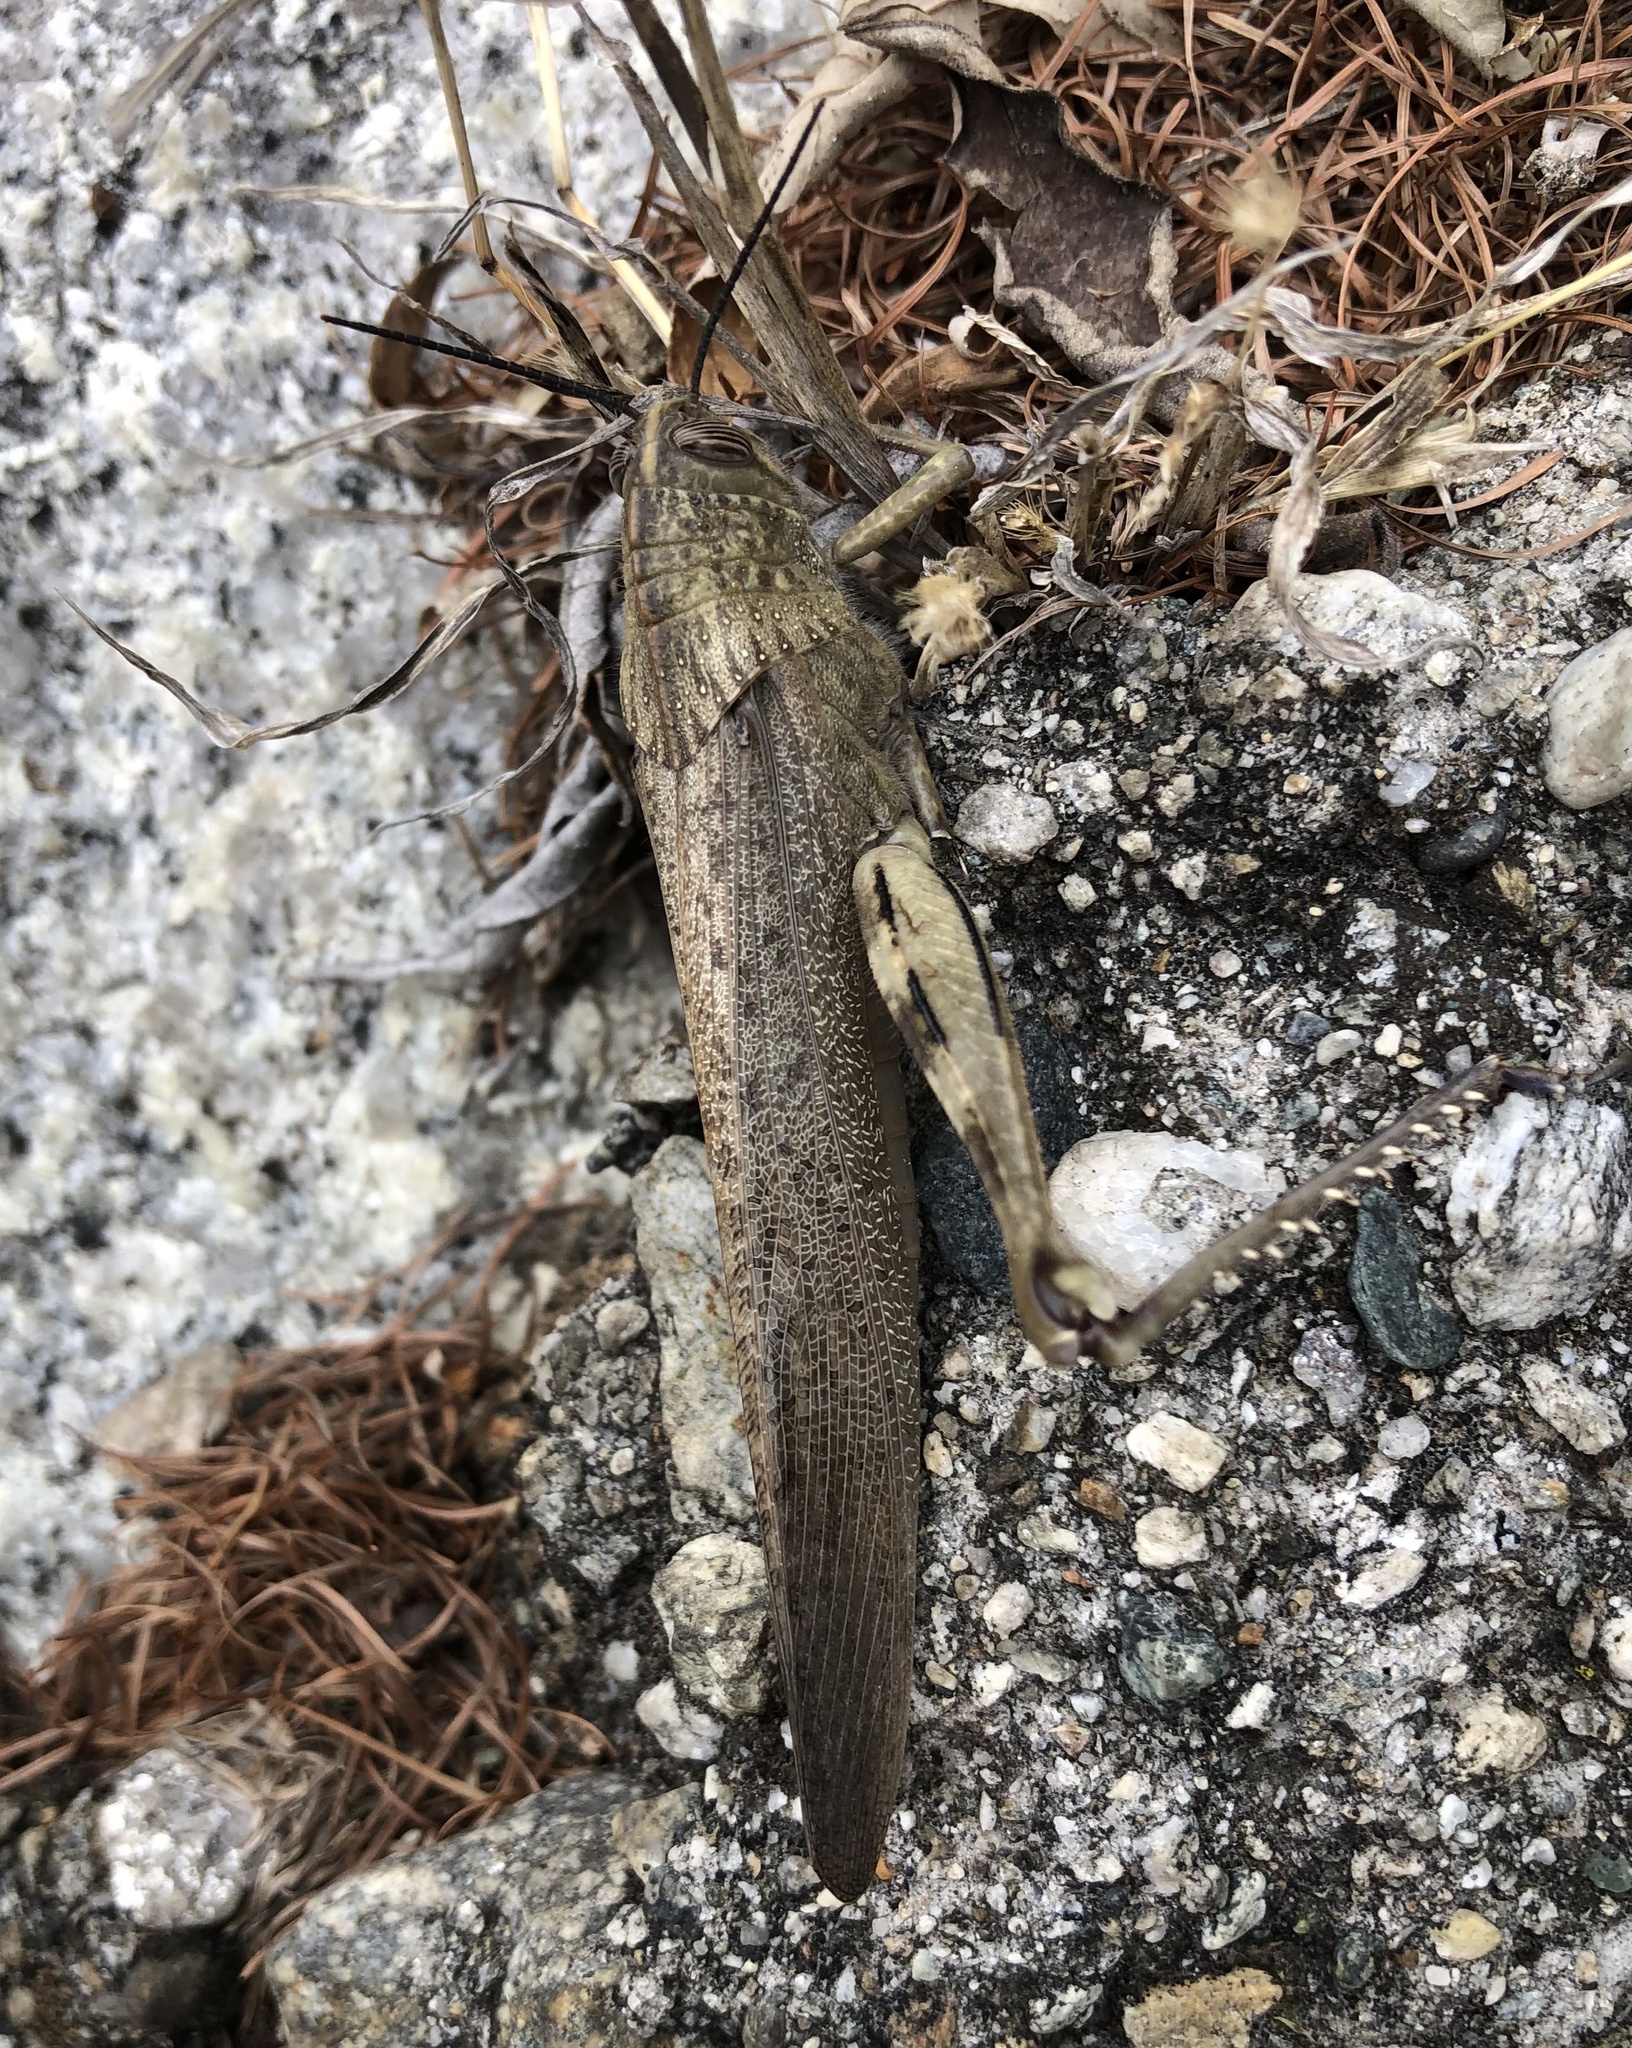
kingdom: Animalia
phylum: Arthropoda
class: Insecta
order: Orthoptera
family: Acrididae
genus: Anacridium
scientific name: Anacridium aegyptium
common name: Egyptian grasshopper
